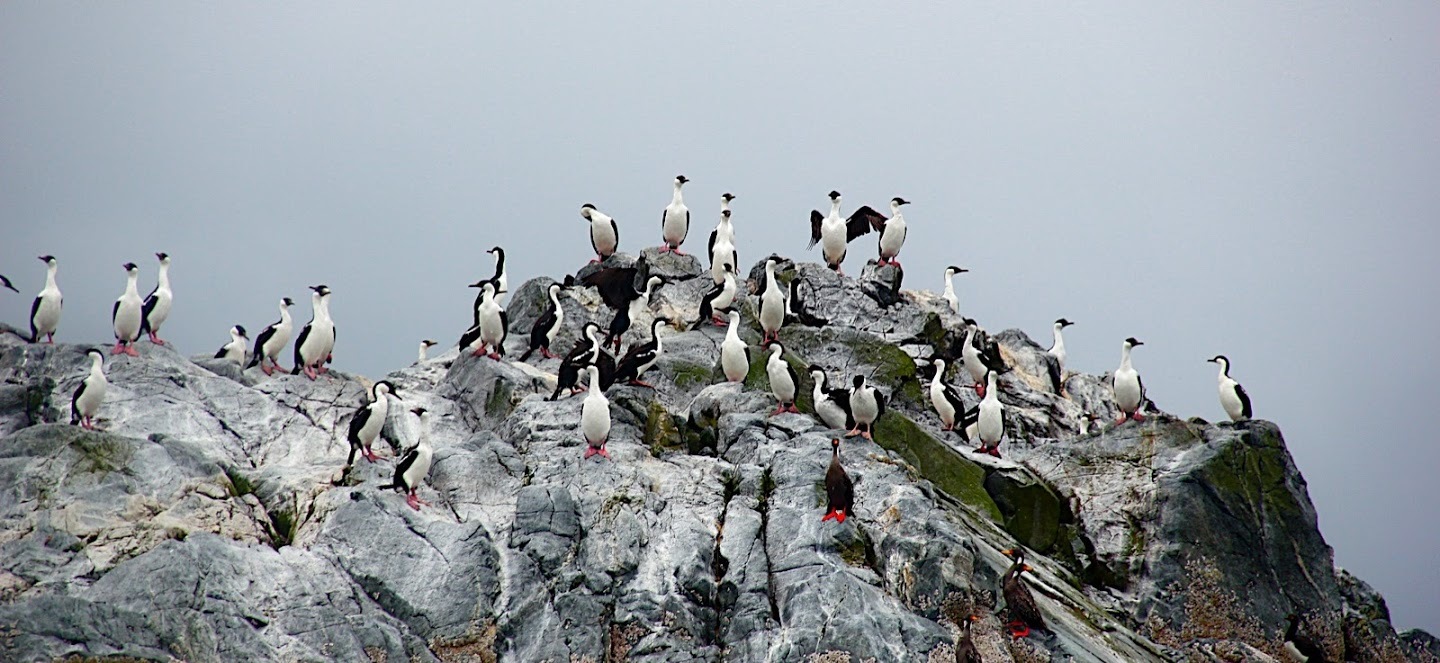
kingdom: Animalia
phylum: Chordata
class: Aves
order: Suliformes
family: Phalacrocoracidae
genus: Leucocarbo
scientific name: Leucocarbo atriceps
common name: Imperial shag
